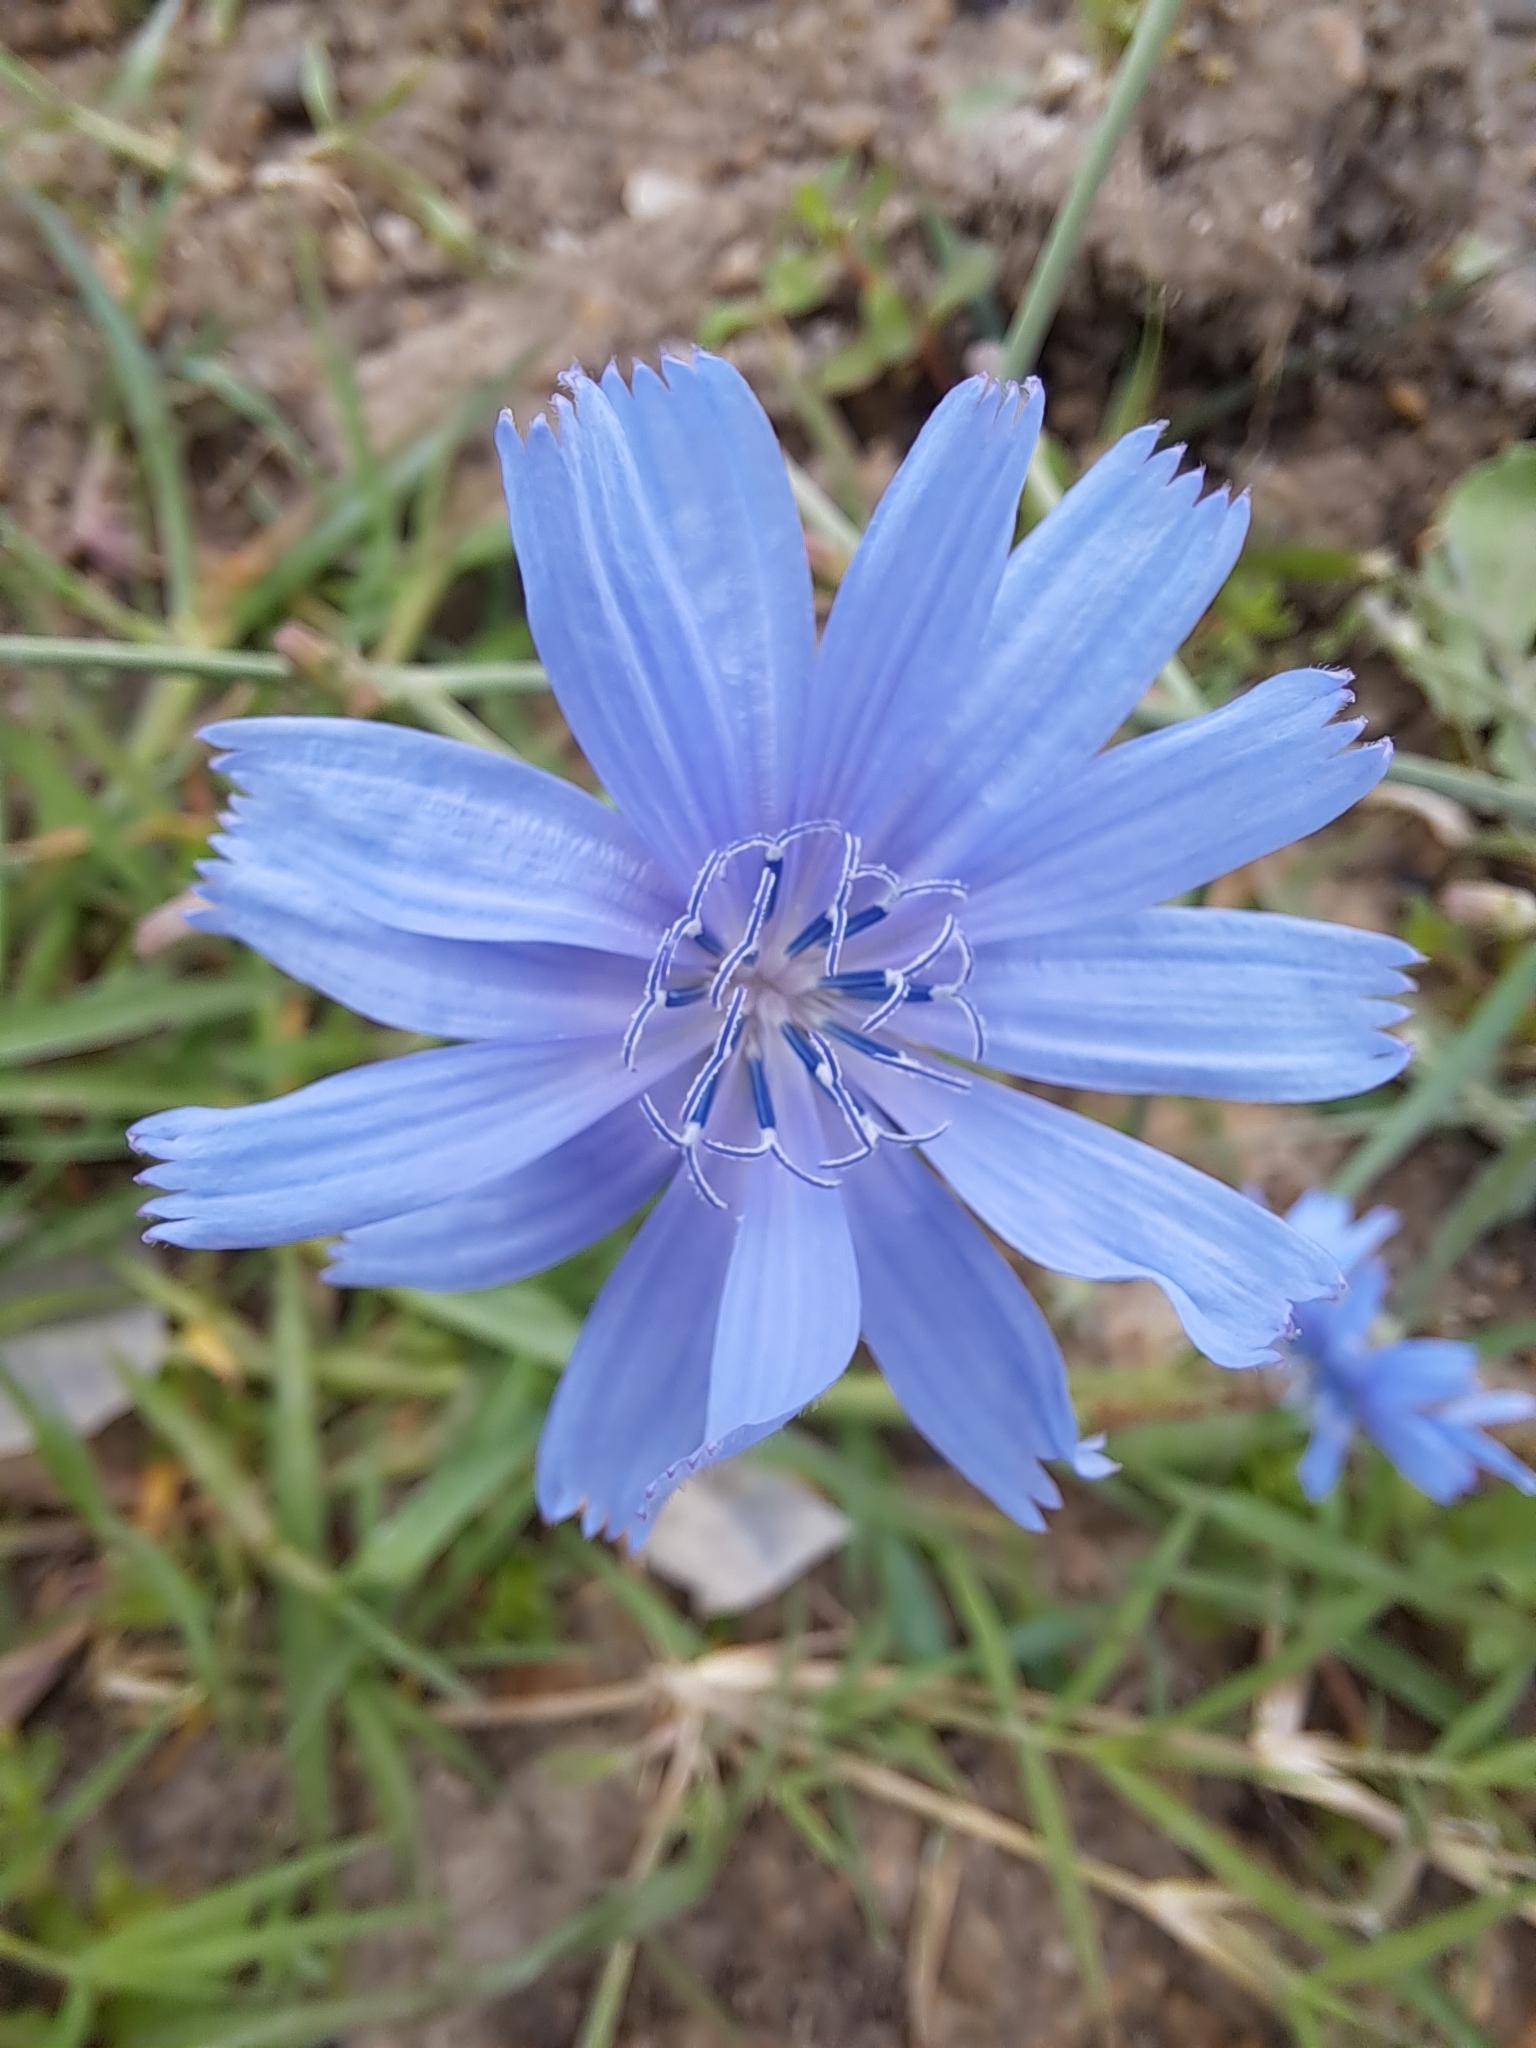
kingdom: Plantae
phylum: Tracheophyta
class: Magnoliopsida
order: Asterales
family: Asteraceae
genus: Cichorium
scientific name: Cichorium intybus
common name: Chicory
